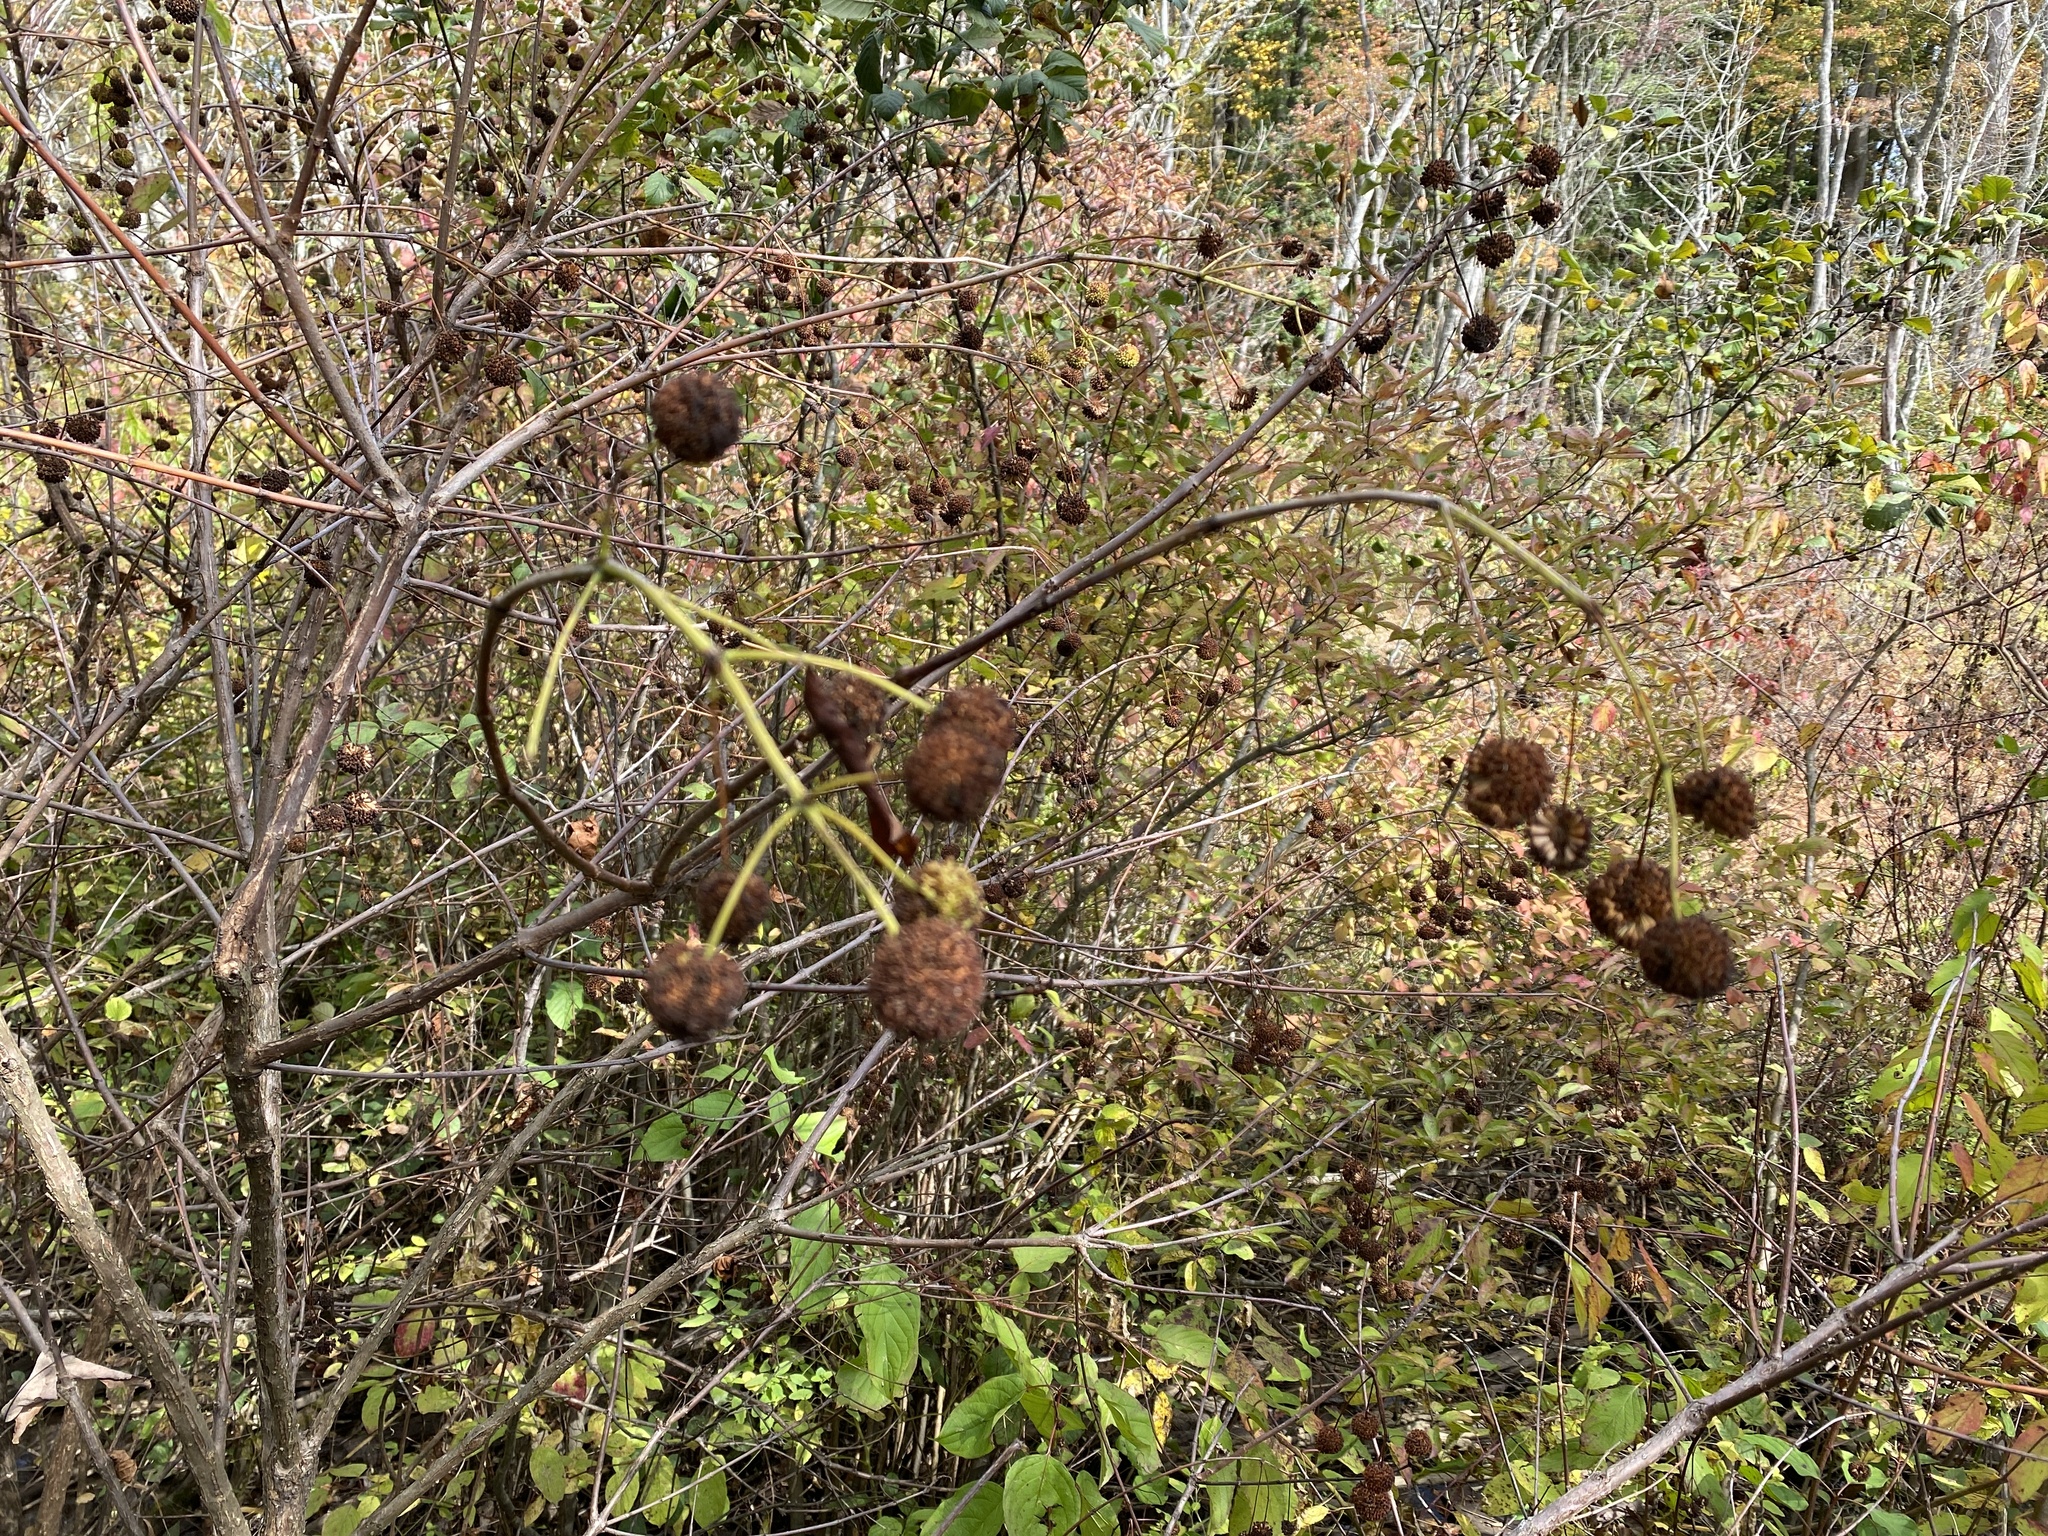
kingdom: Plantae
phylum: Tracheophyta
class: Magnoliopsida
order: Gentianales
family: Rubiaceae
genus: Cephalanthus
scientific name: Cephalanthus occidentalis
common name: Button-willow
